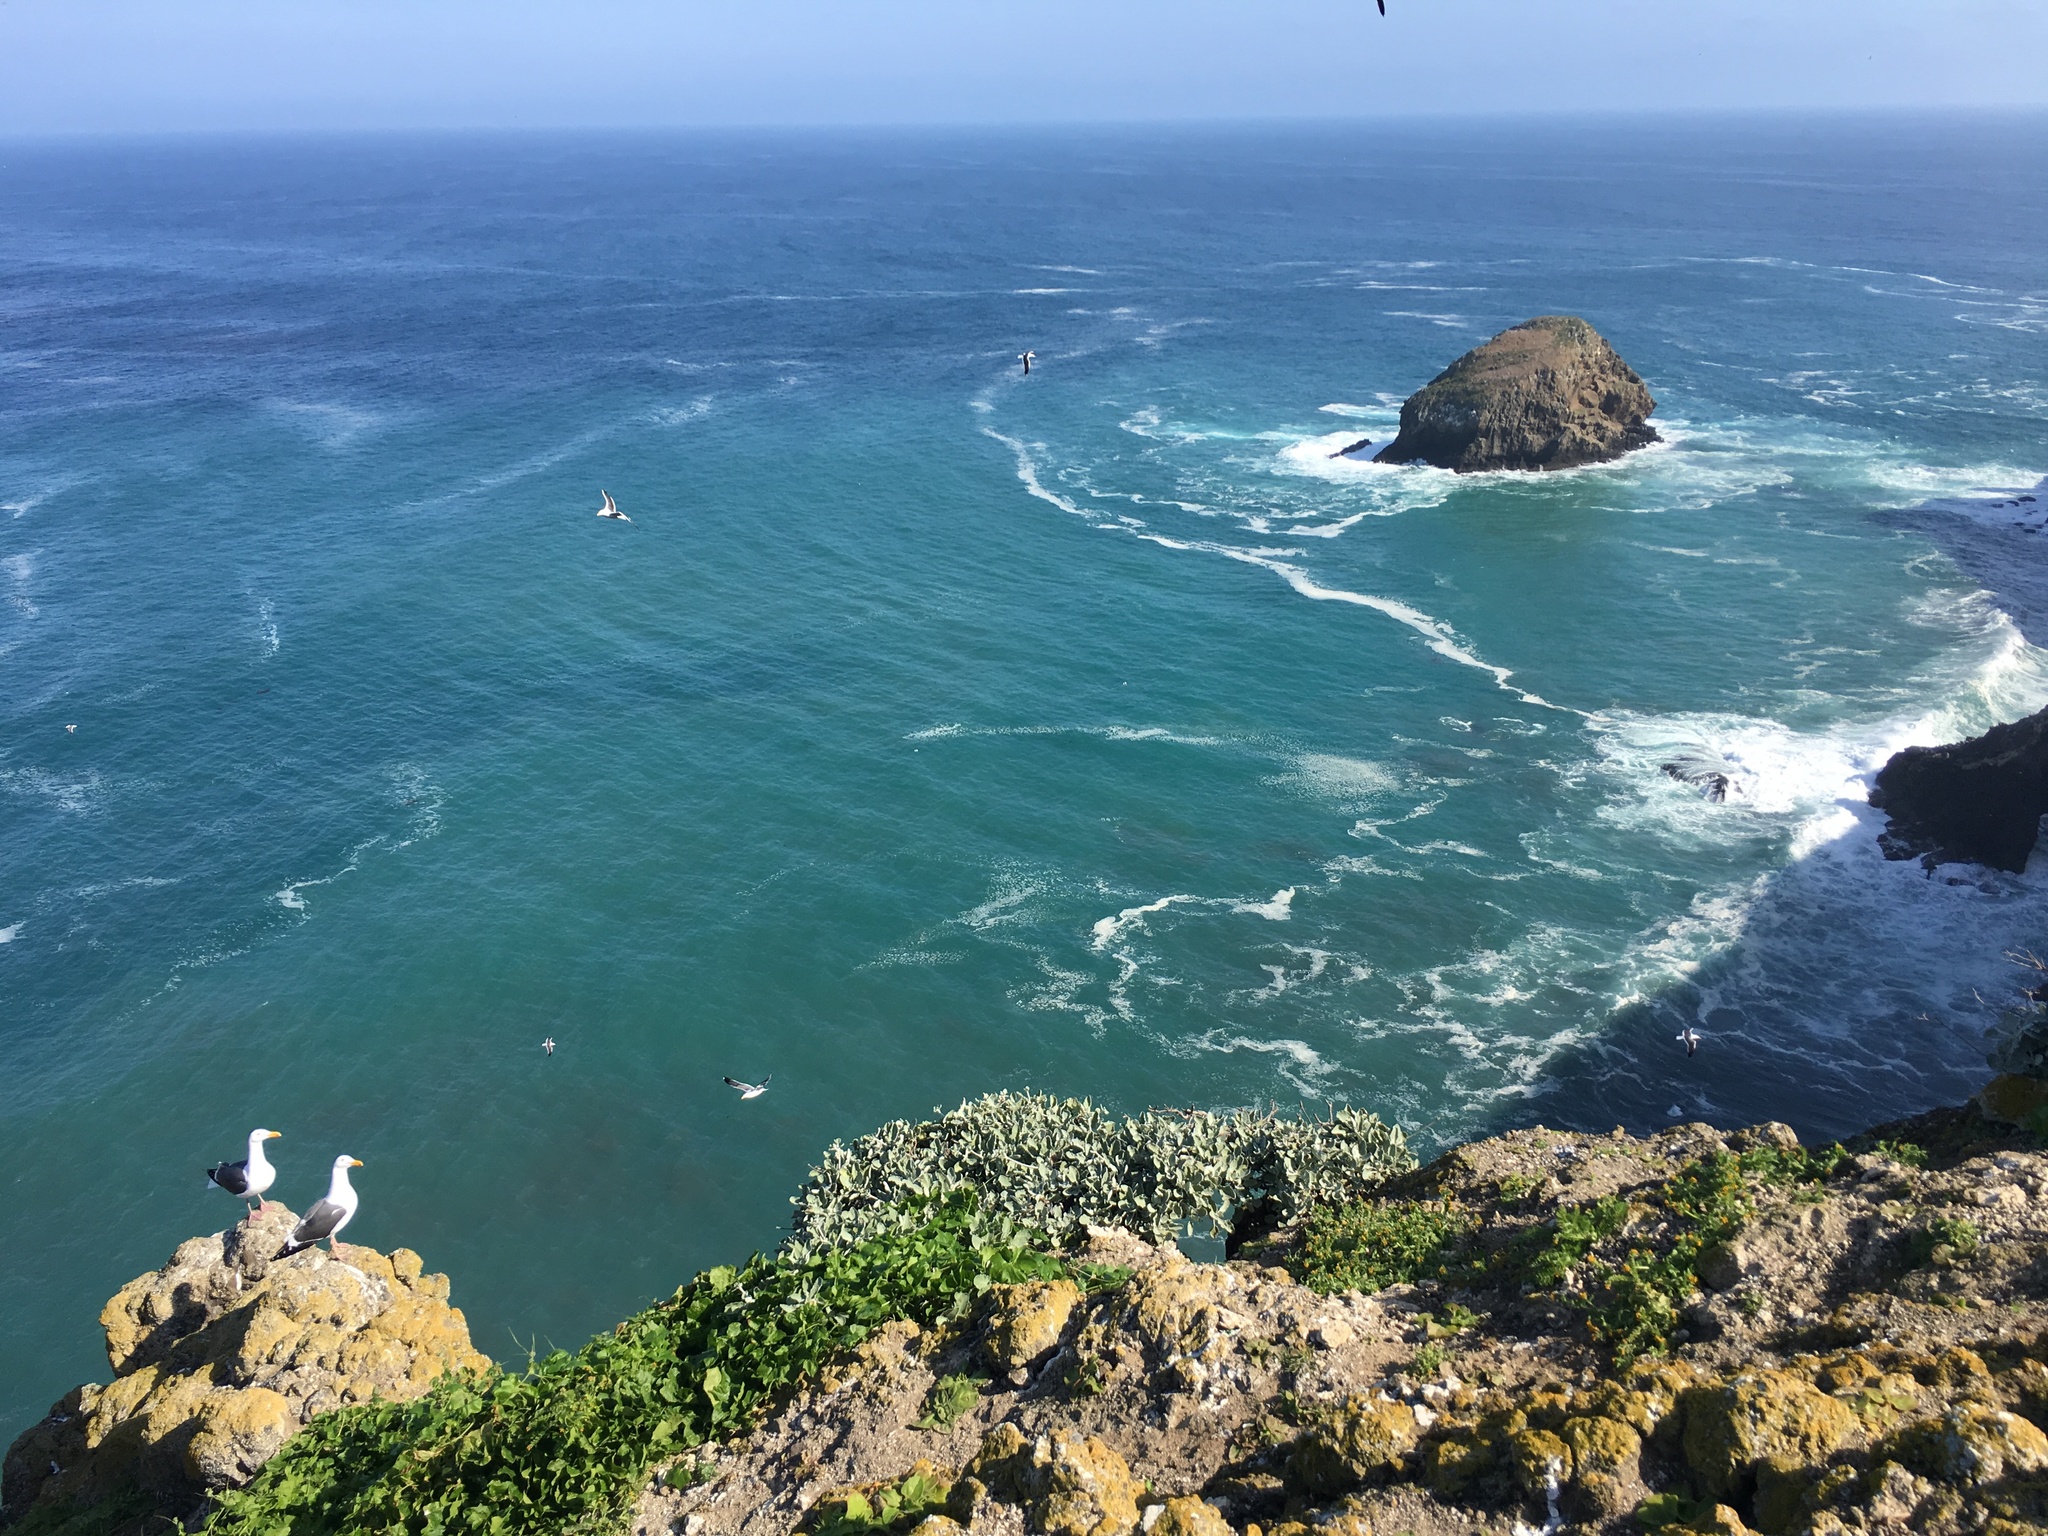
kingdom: Animalia
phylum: Chordata
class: Aves
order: Charadriiformes
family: Laridae
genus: Larus
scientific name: Larus occidentalis
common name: Western gull
